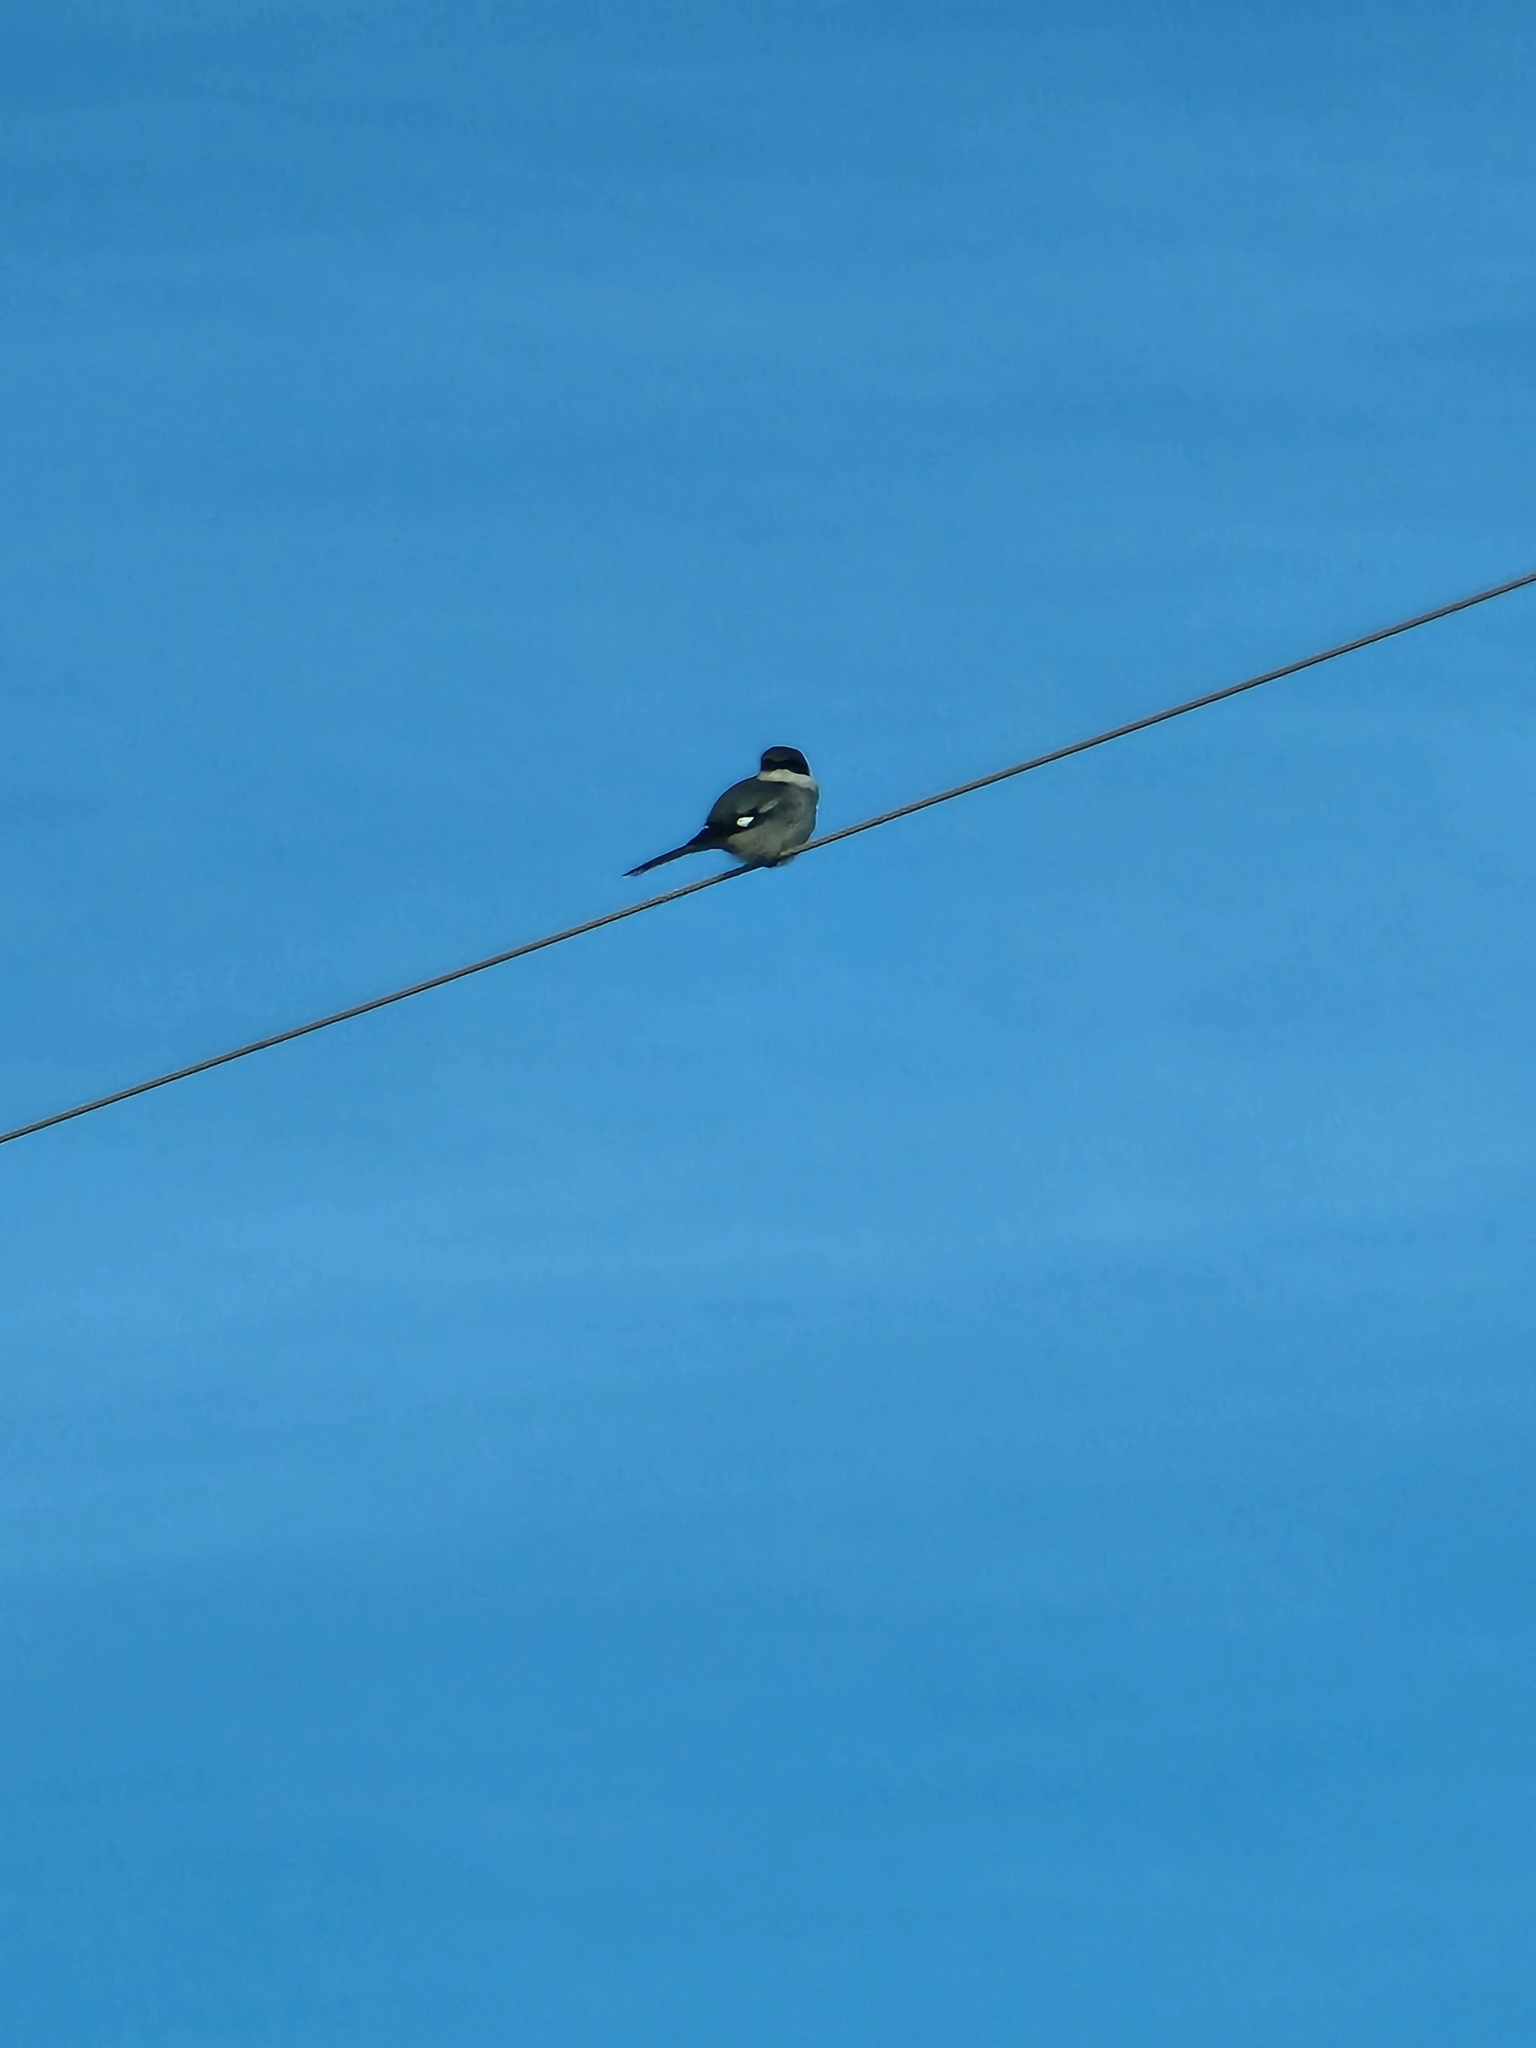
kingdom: Animalia
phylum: Chordata
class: Aves
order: Passeriformes
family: Laniidae
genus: Lanius
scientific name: Lanius ludovicianus
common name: Loggerhead shrike
